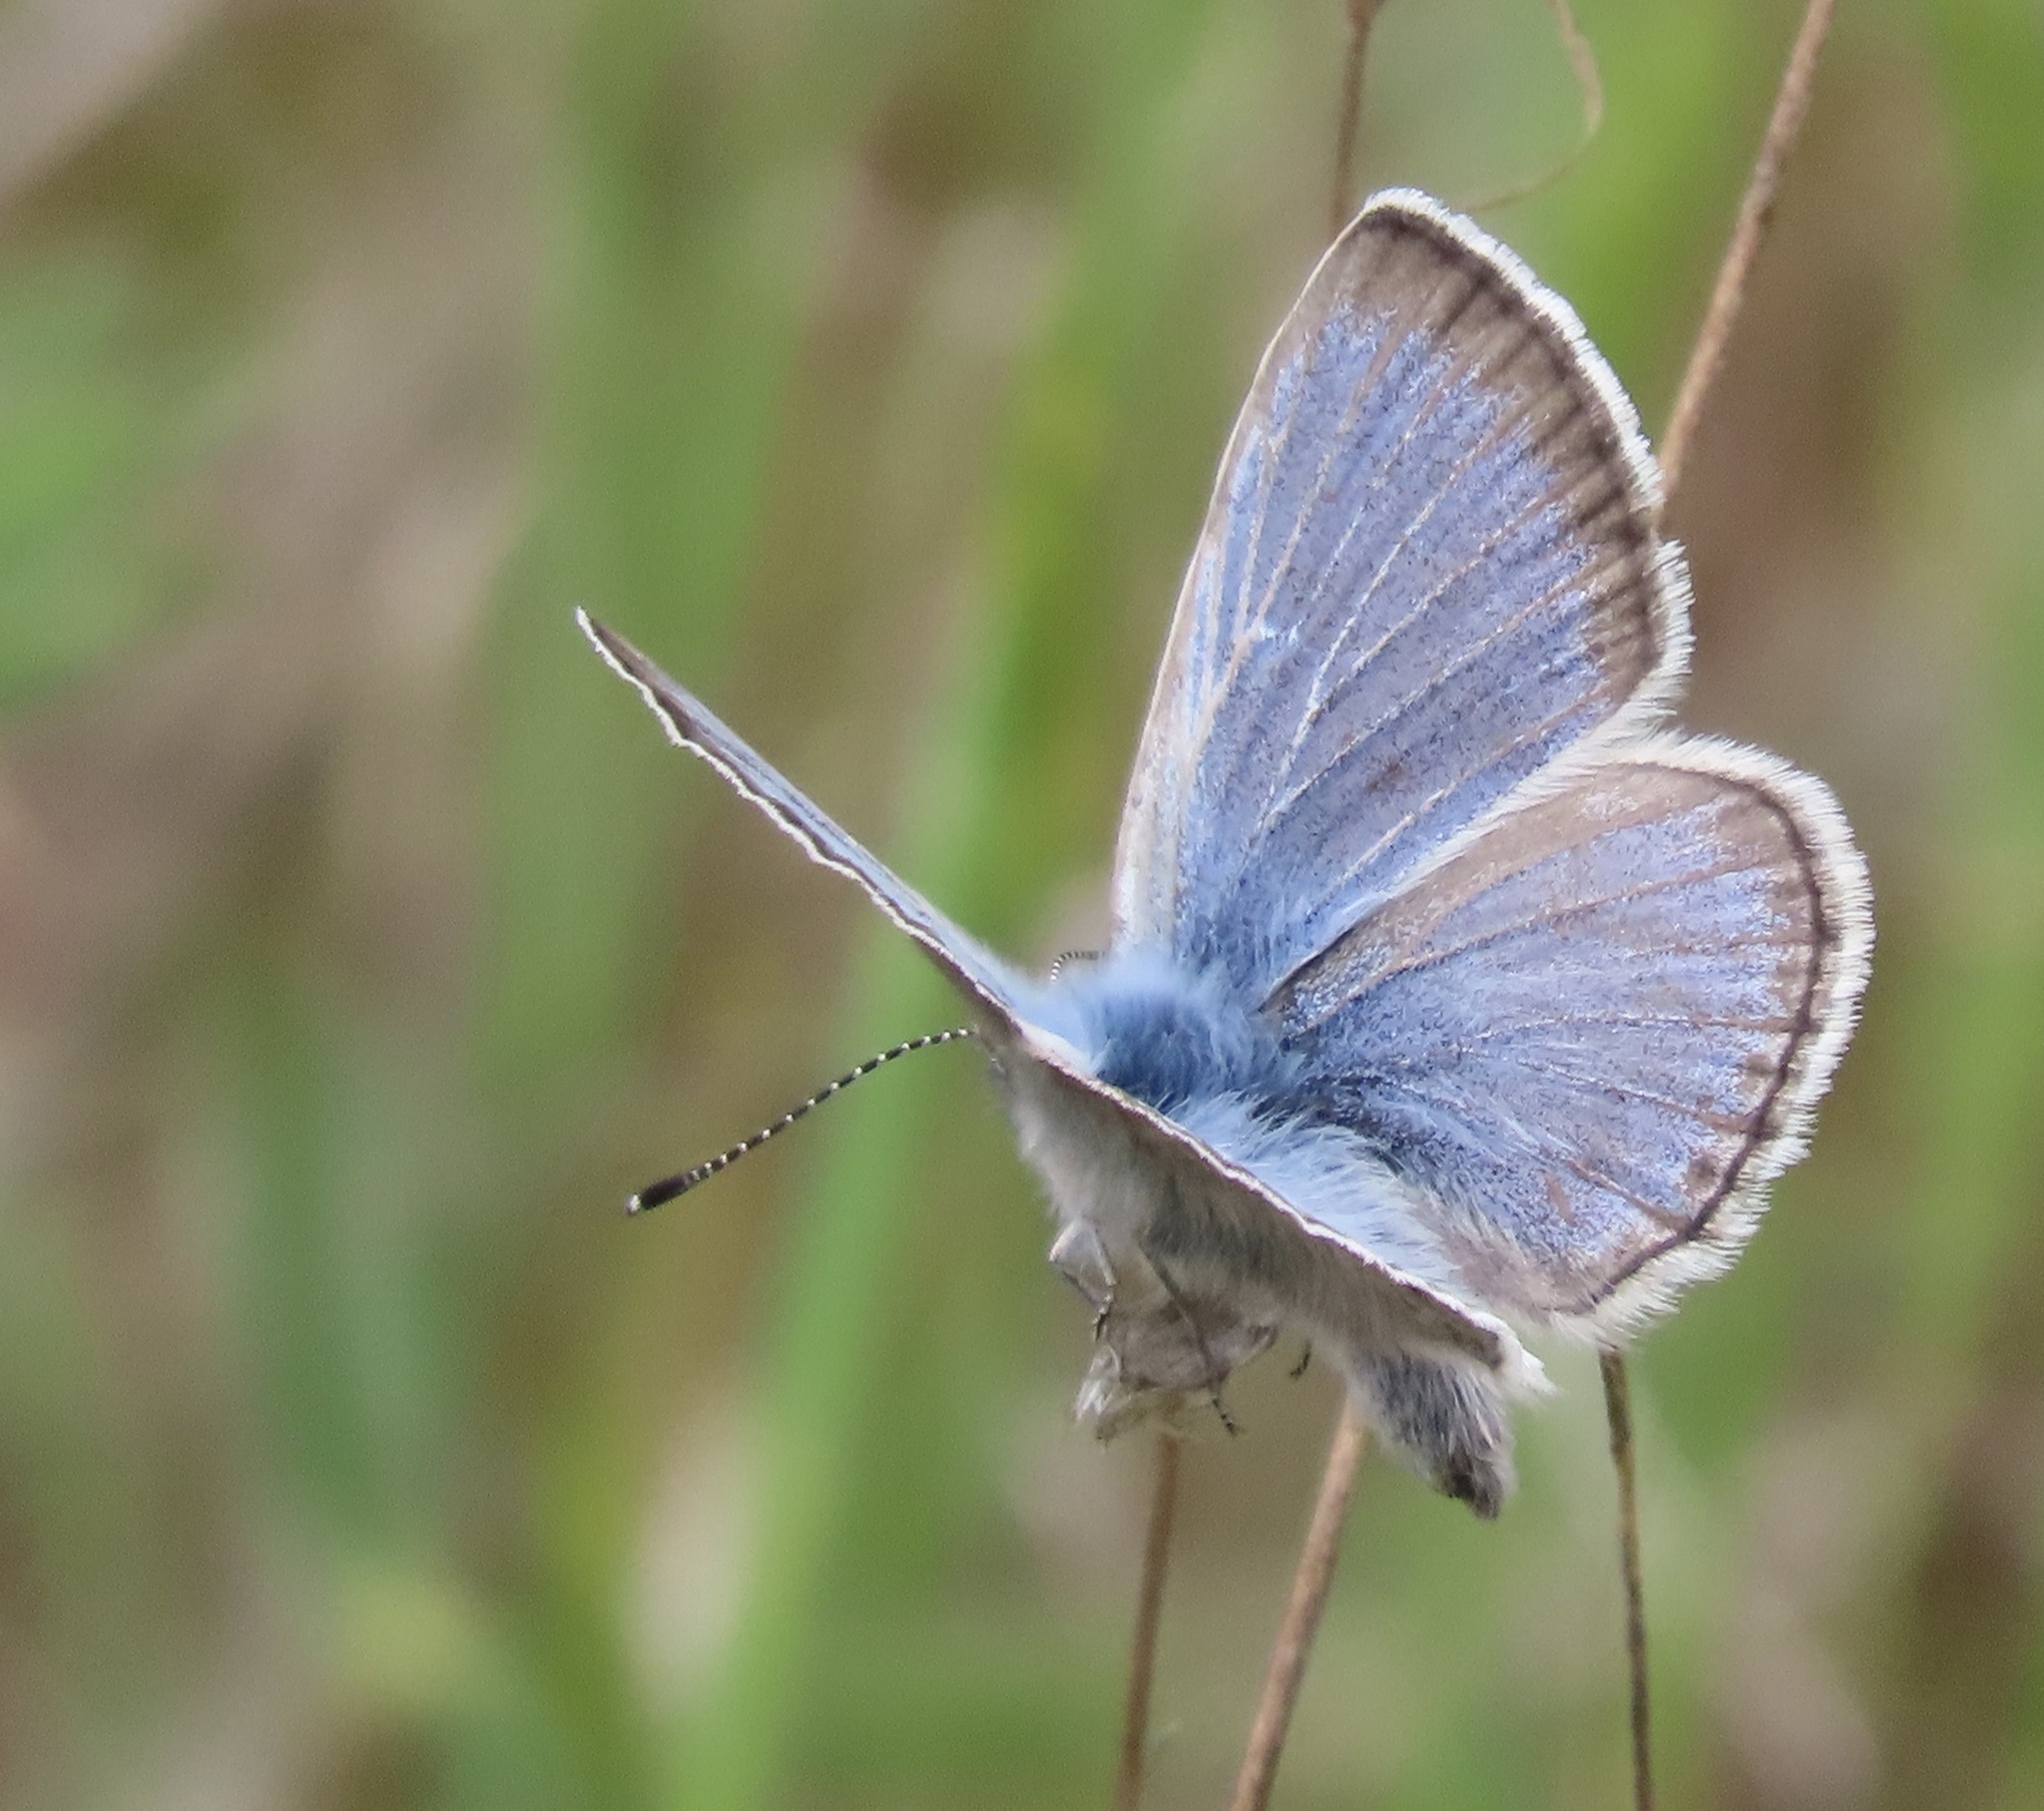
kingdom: Animalia
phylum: Arthropoda
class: Insecta
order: Lepidoptera
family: Lycaenidae
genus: Icaricia
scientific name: Icaricia icarioides
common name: Boisduval's blue
